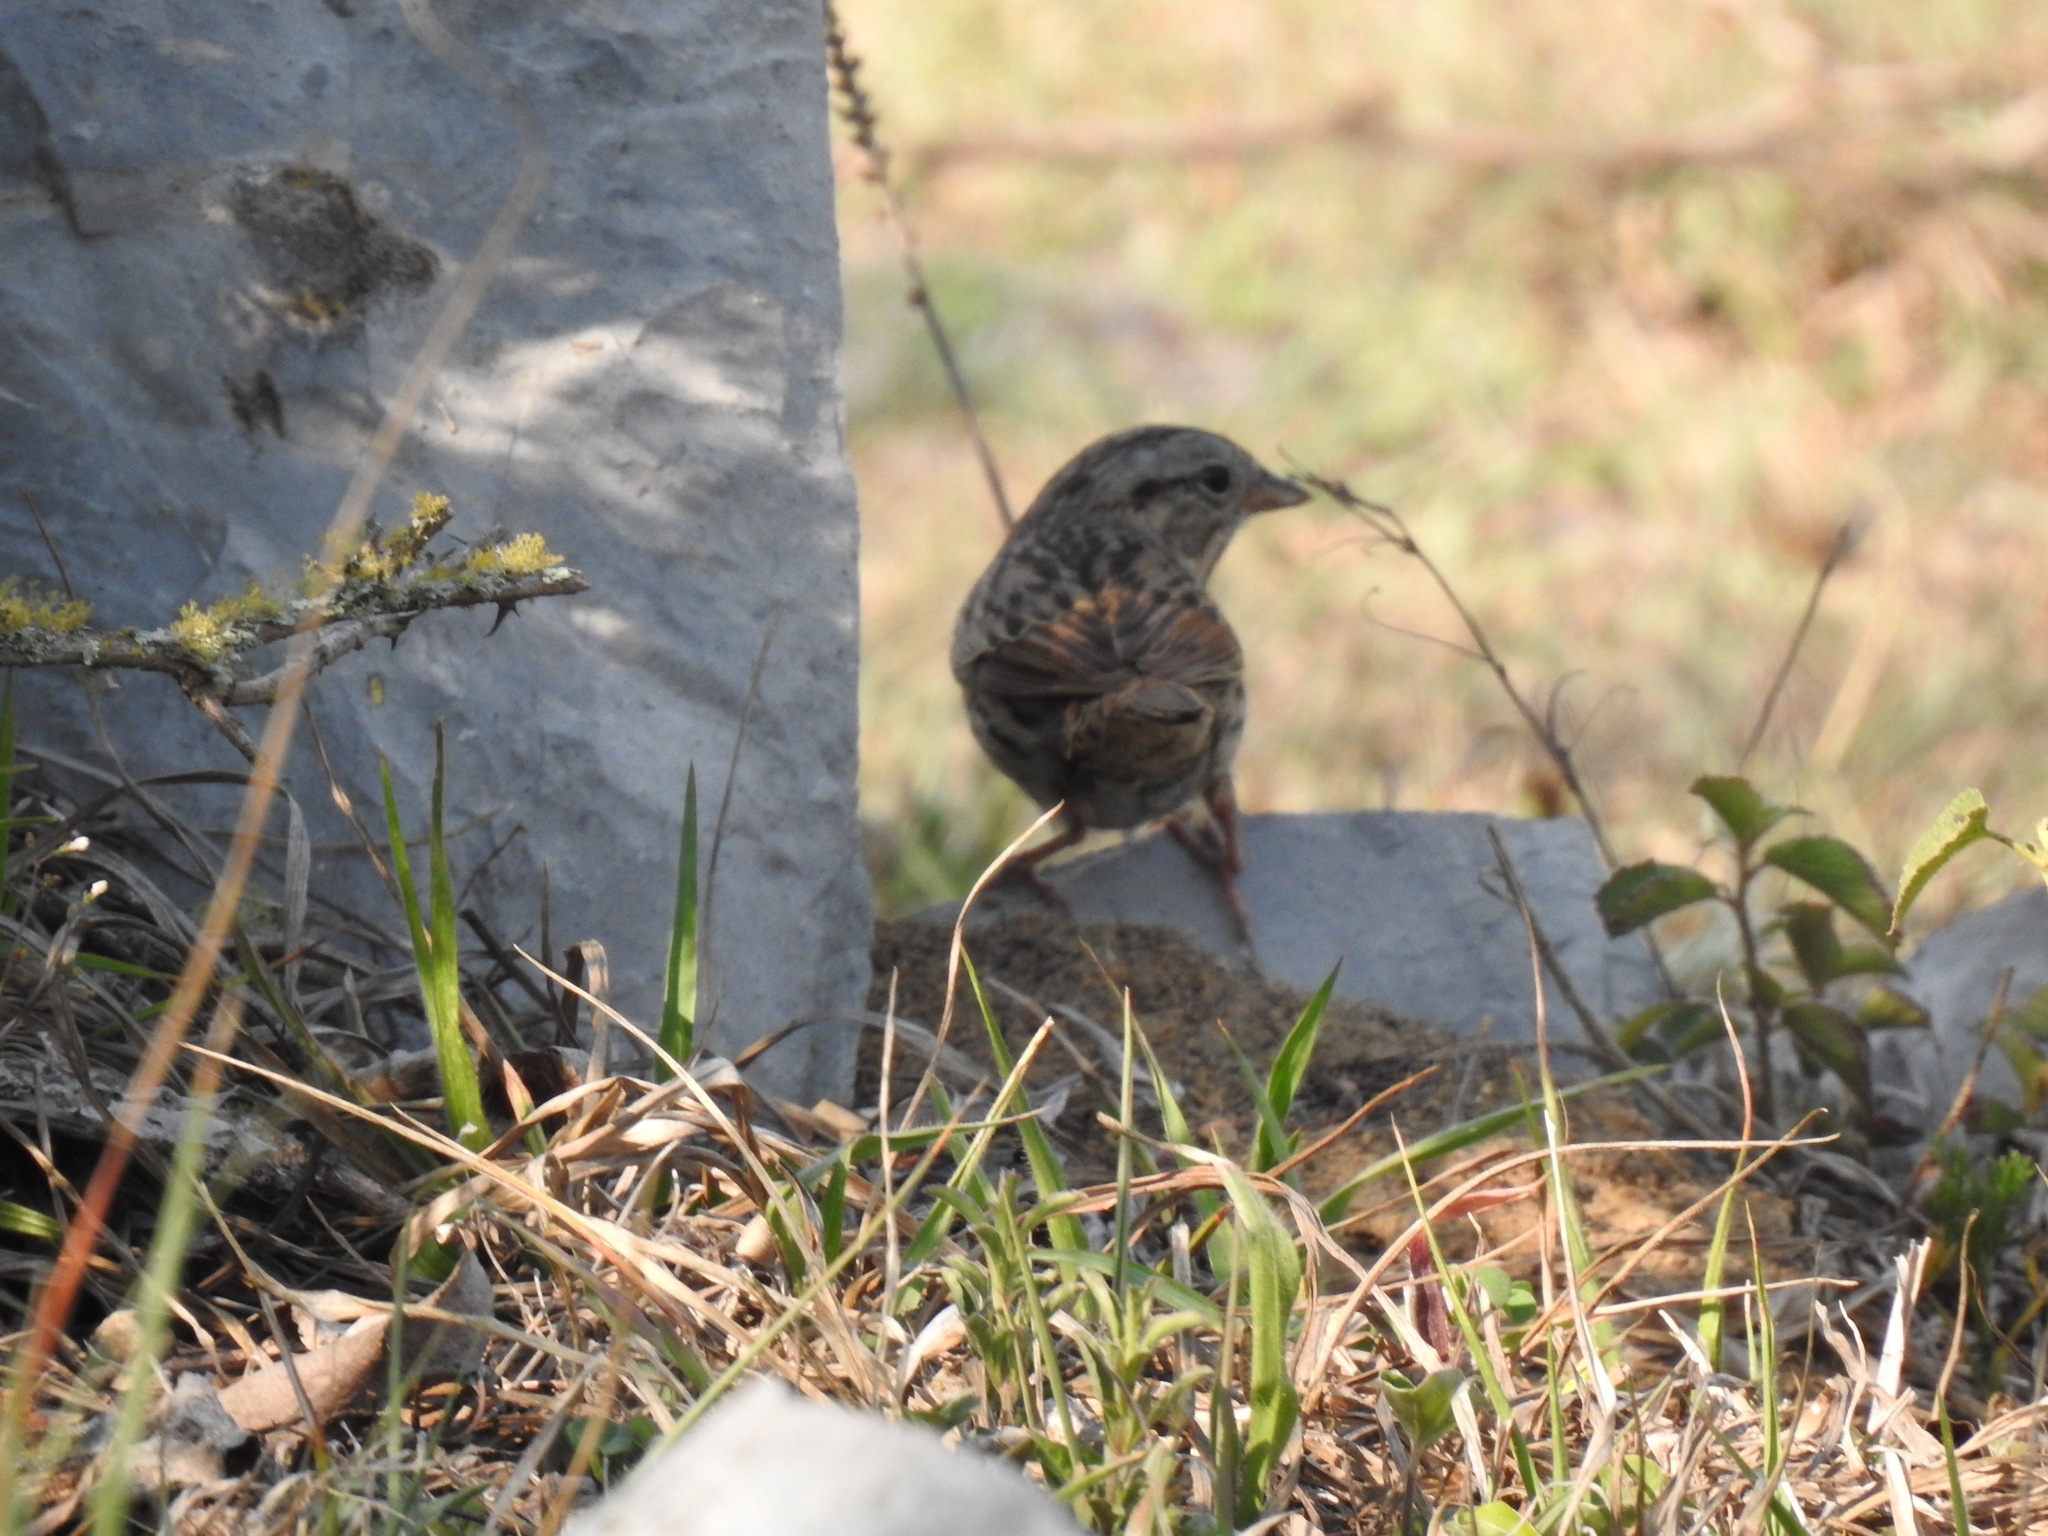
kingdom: Animalia
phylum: Chordata
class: Aves
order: Passeriformes
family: Passerellidae
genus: Melospiza
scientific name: Melospiza lincolnii
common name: Lincoln's sparrow
